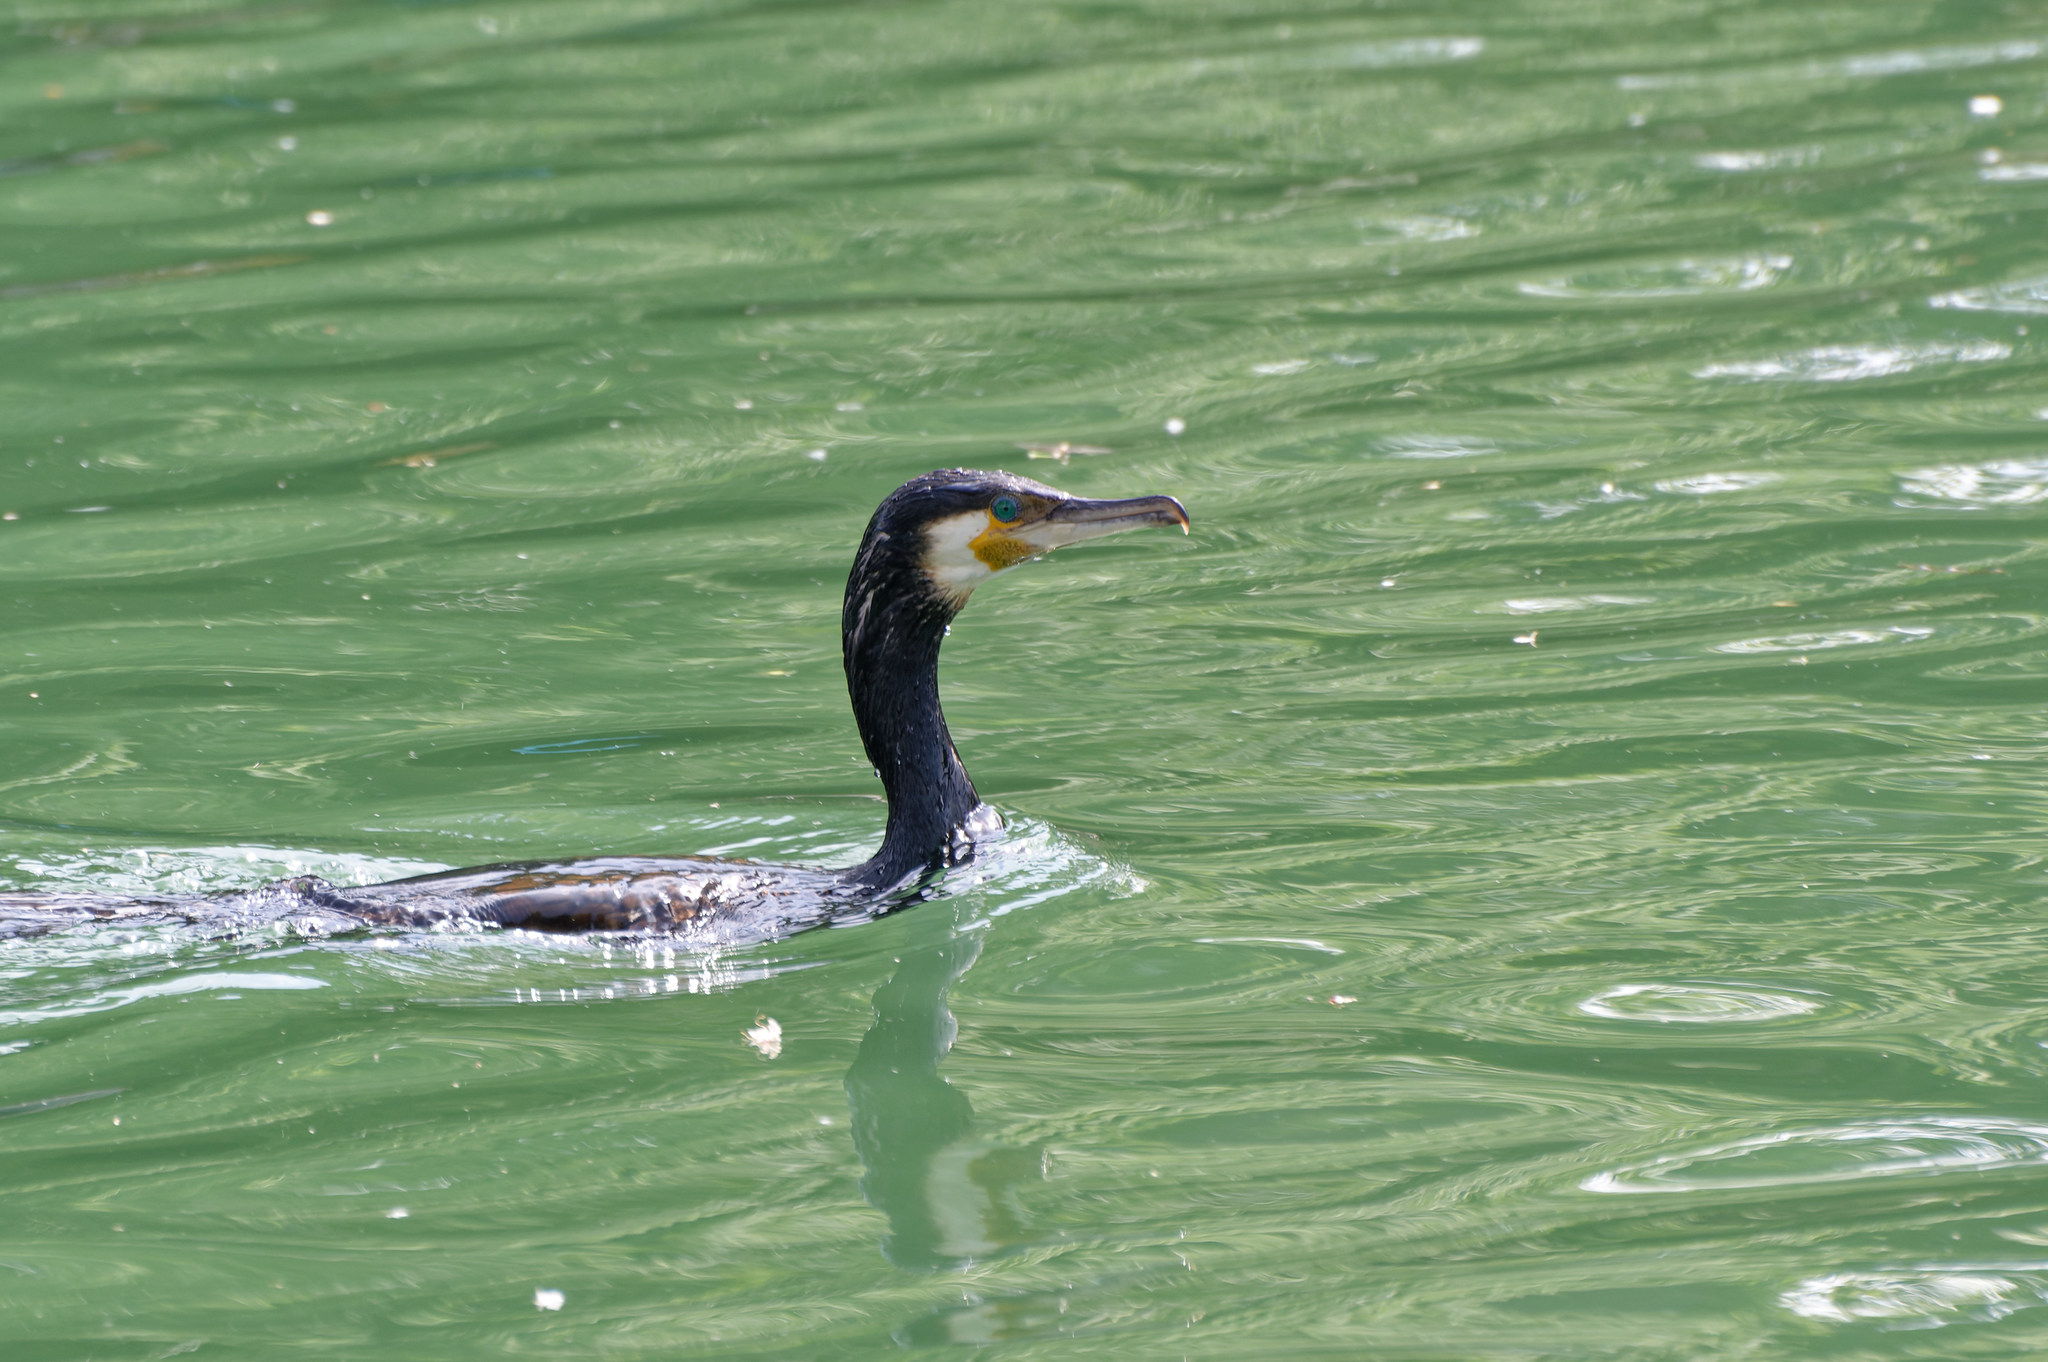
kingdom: Animalia
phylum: Chordata
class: Aves
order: Suliformes
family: Phalacrocoracidae
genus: Phalacrocorax
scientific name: Phalacrocorax carbo
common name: Great cormorant
